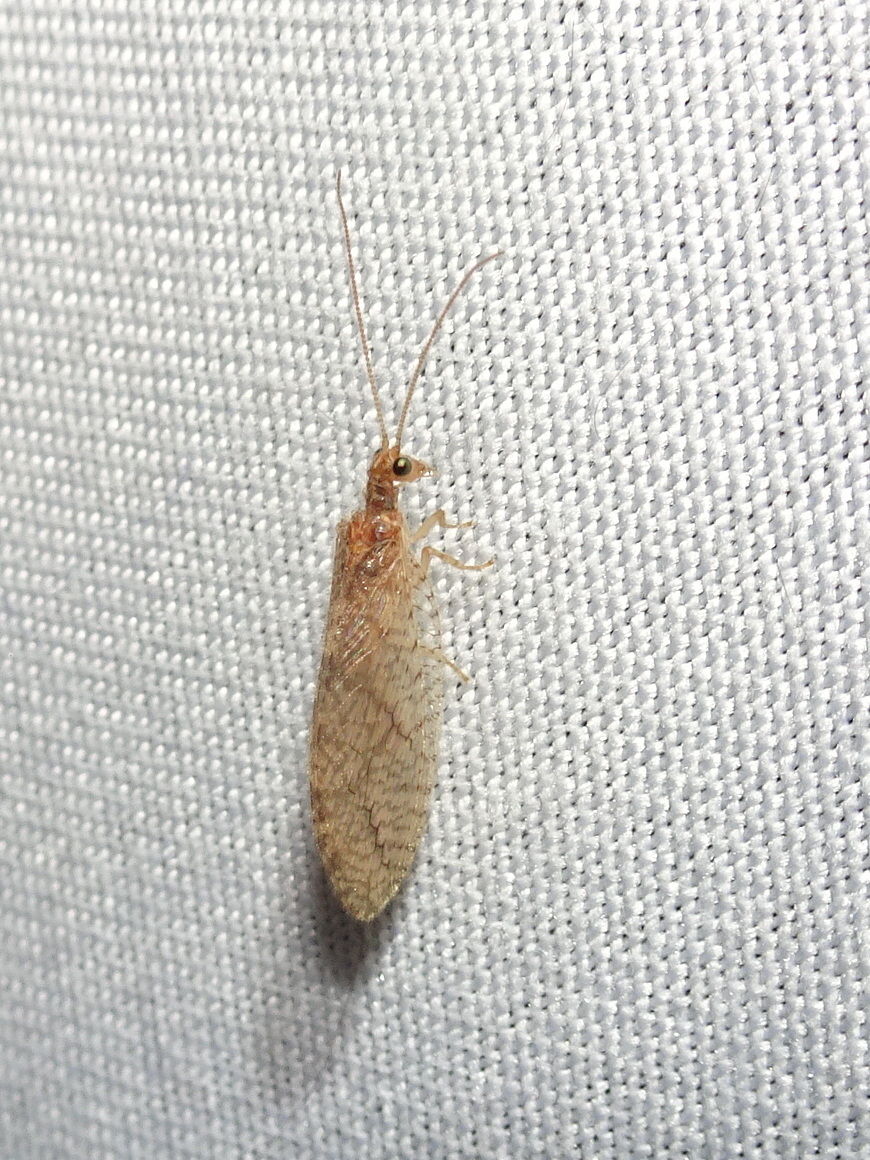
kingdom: Animalia
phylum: Arthropoda
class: Insecta
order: Neuroptera
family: Hemerobiidae
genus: Micromus
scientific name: Micromus posticus
